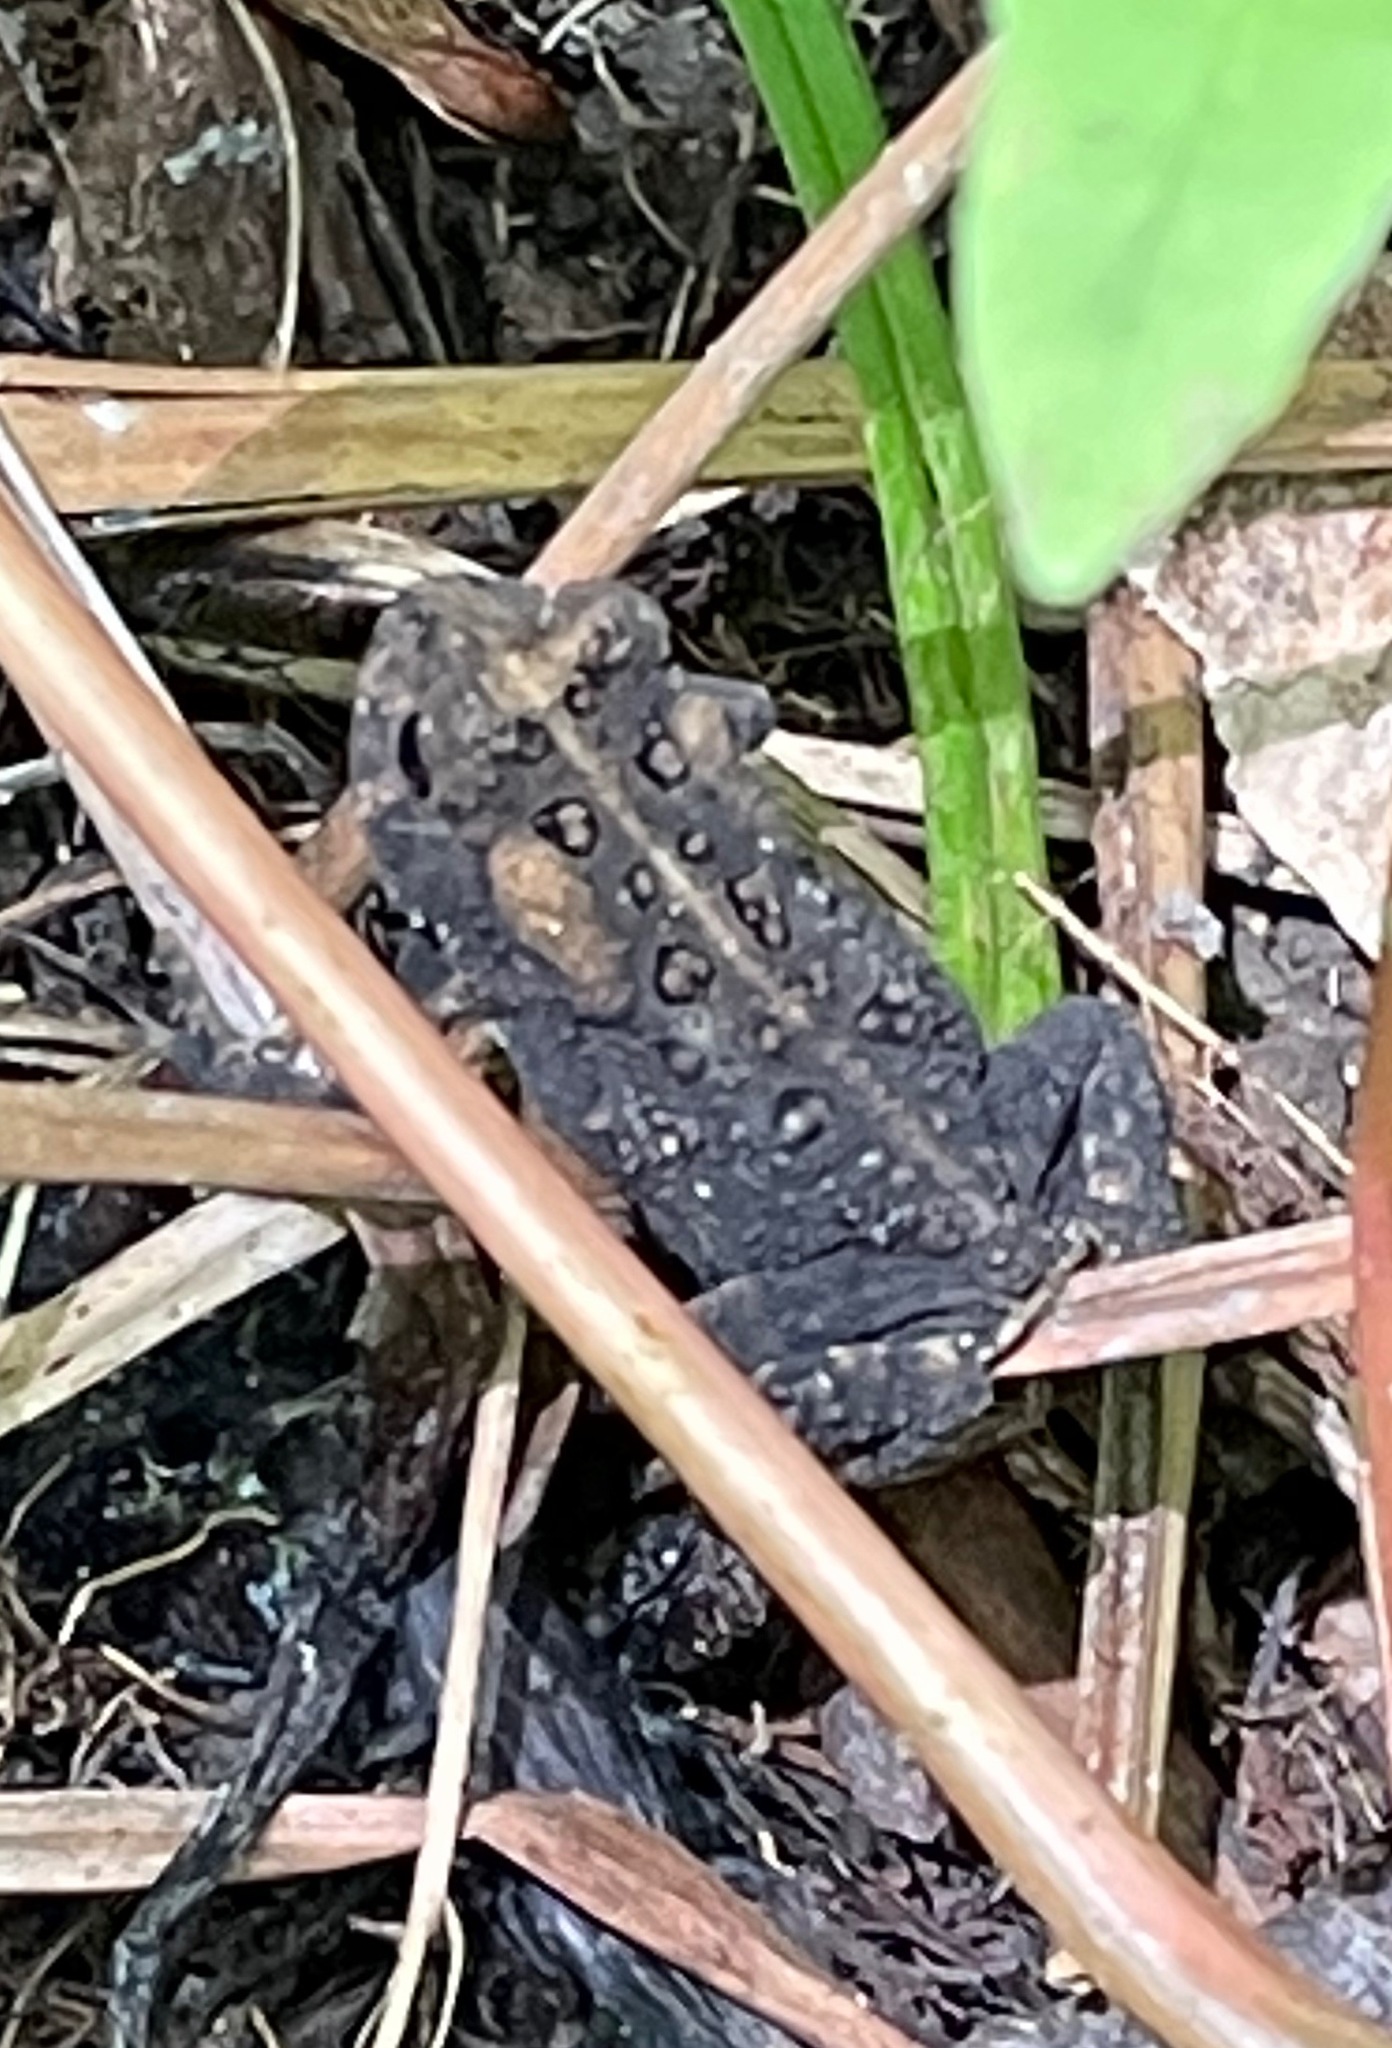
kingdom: Animalia
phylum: Chordata
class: Amphibia
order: Anura
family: Bufonidae
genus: Anaxyrus
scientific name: Anaxyrus americanus
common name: American toad
